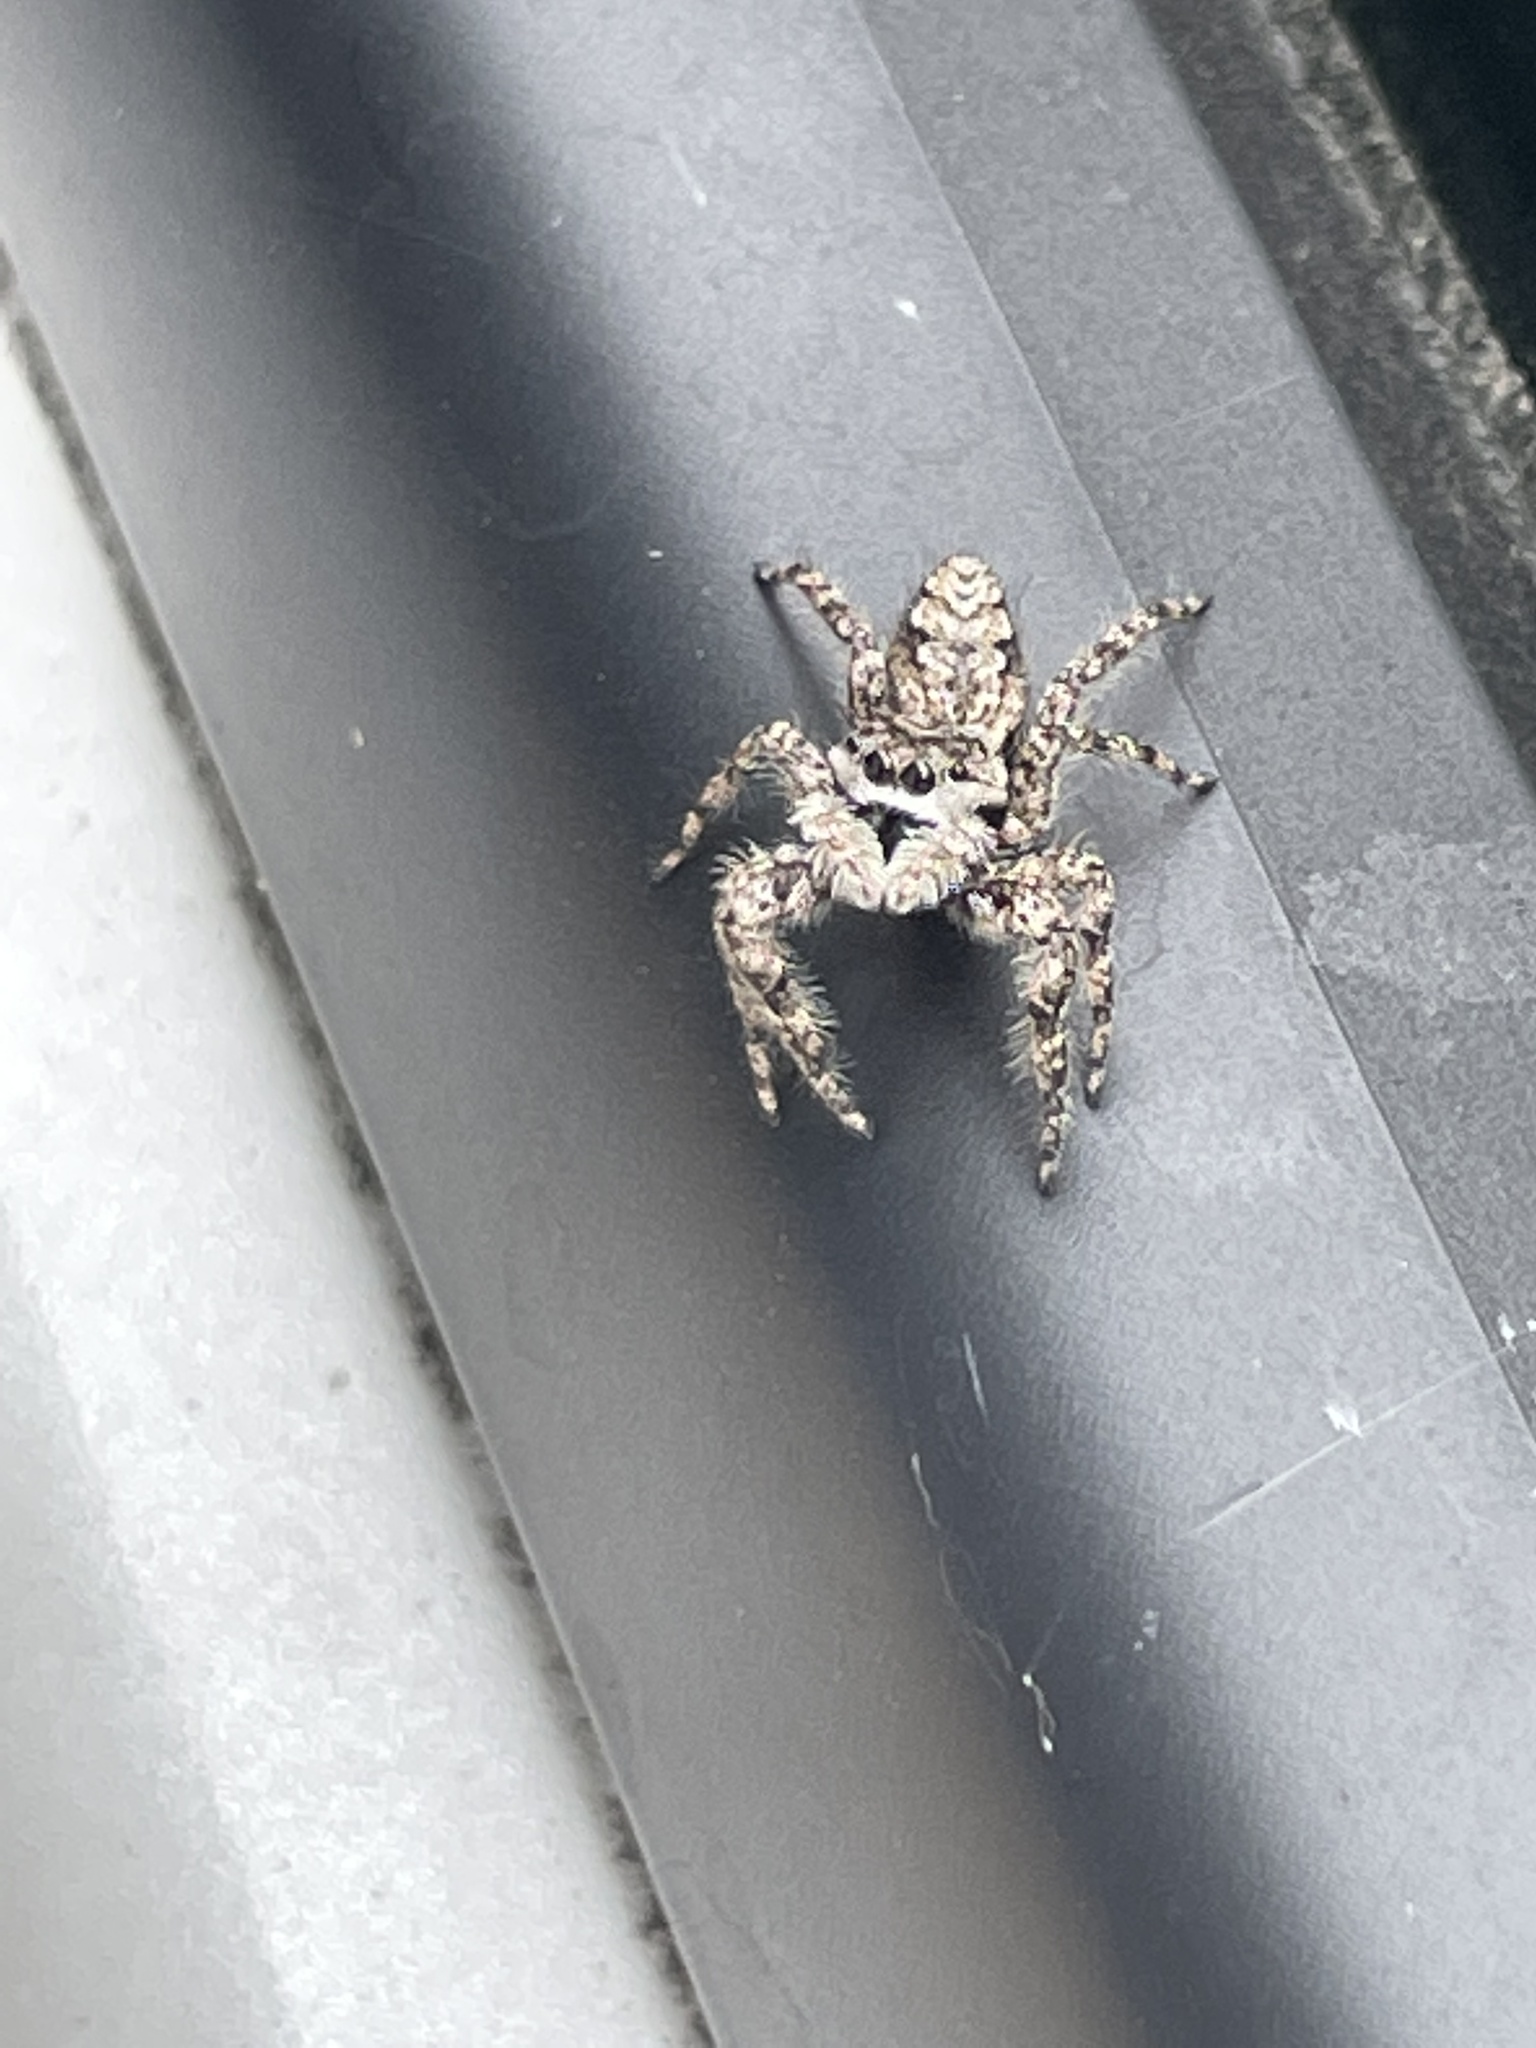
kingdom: Animalia
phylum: Arthropoda
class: Arachnida
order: Araneae
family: Salticidae
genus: Platycryptus
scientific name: Platycryptus undatus
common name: Tan jumping spider
